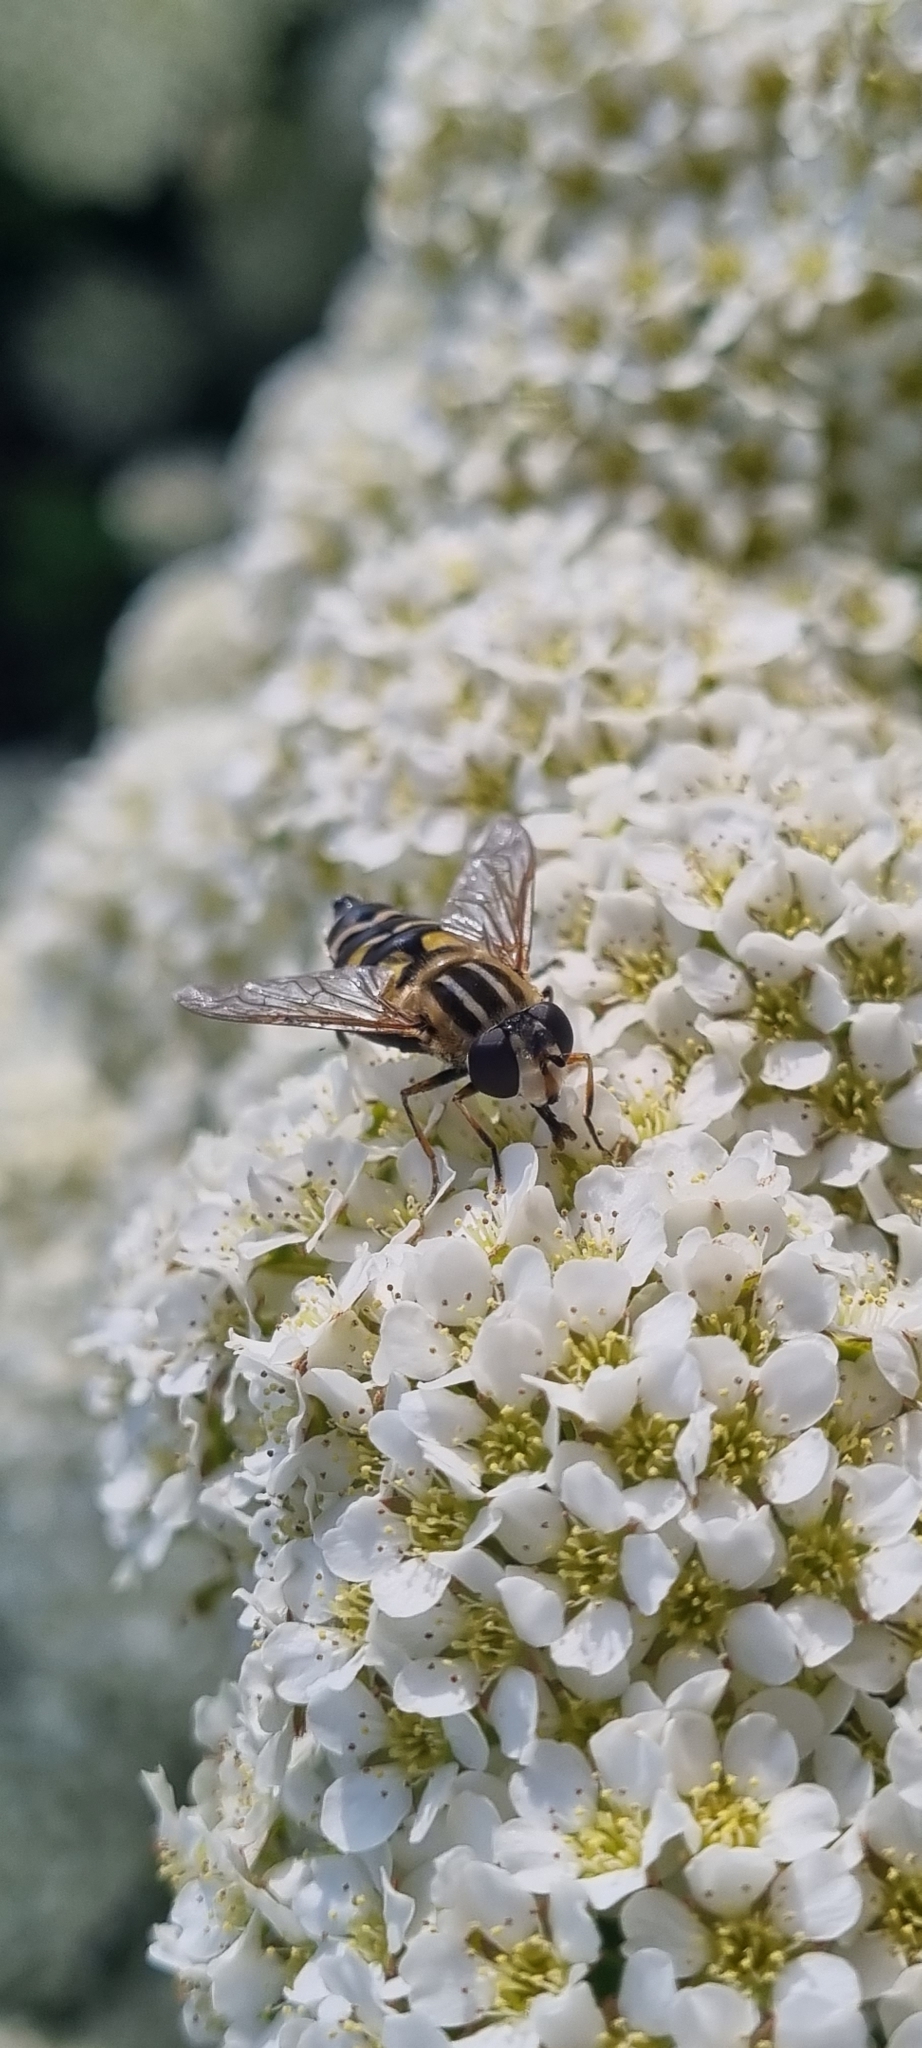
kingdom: Animalia
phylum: Arthropoda
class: Insecta
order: Diptera
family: Syrphidae
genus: Helophilus
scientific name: Helophilus trivittatus
